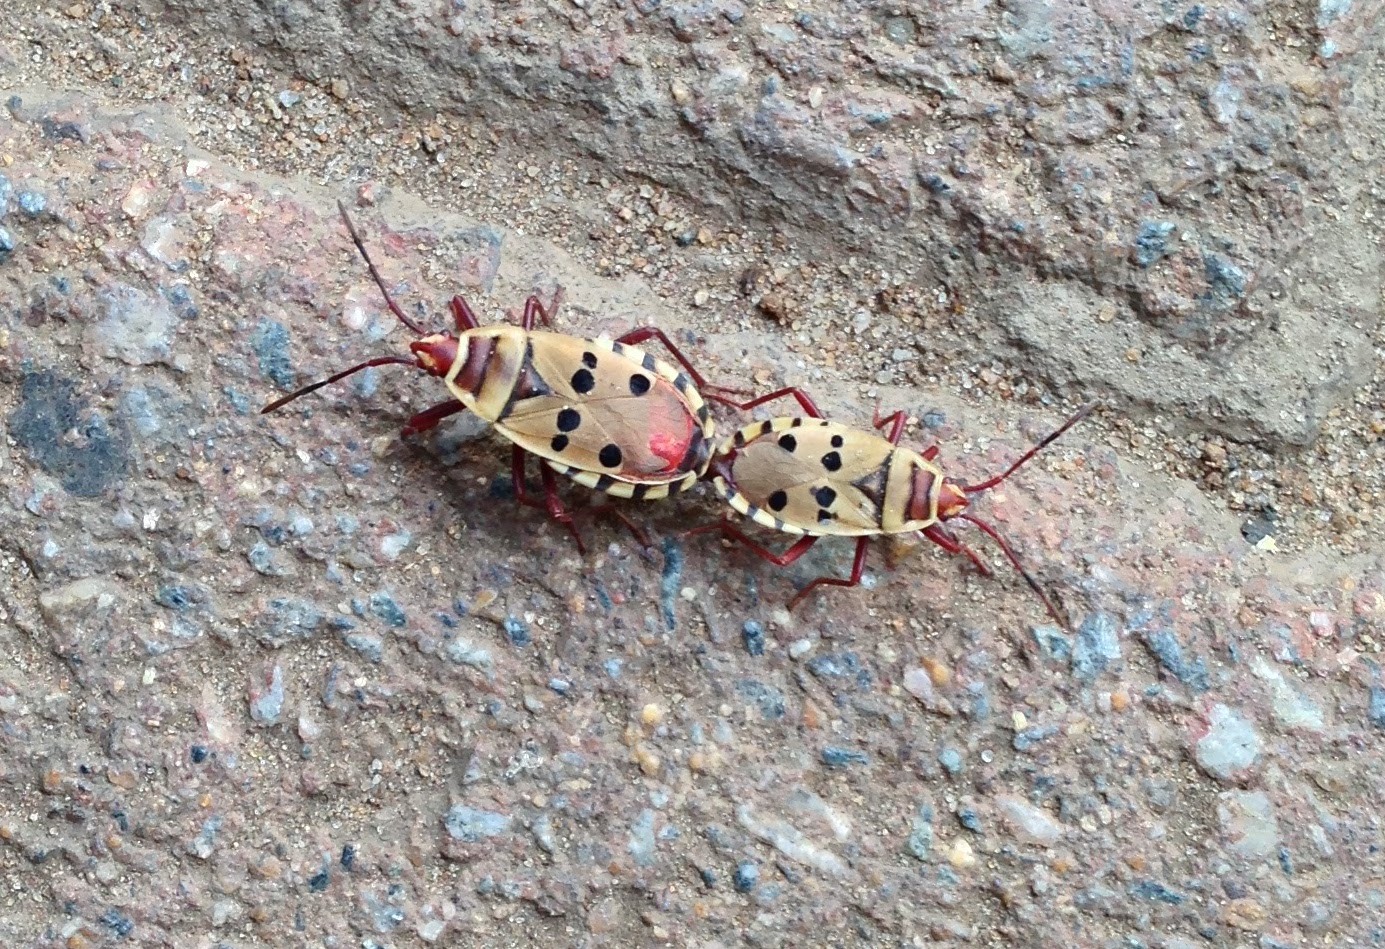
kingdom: Animalia
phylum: Arthropoda
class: Insecta
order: Hemiptera
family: Pyrrhocoridae
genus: Probergrothius
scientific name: Probergrothius sexpunctatus
